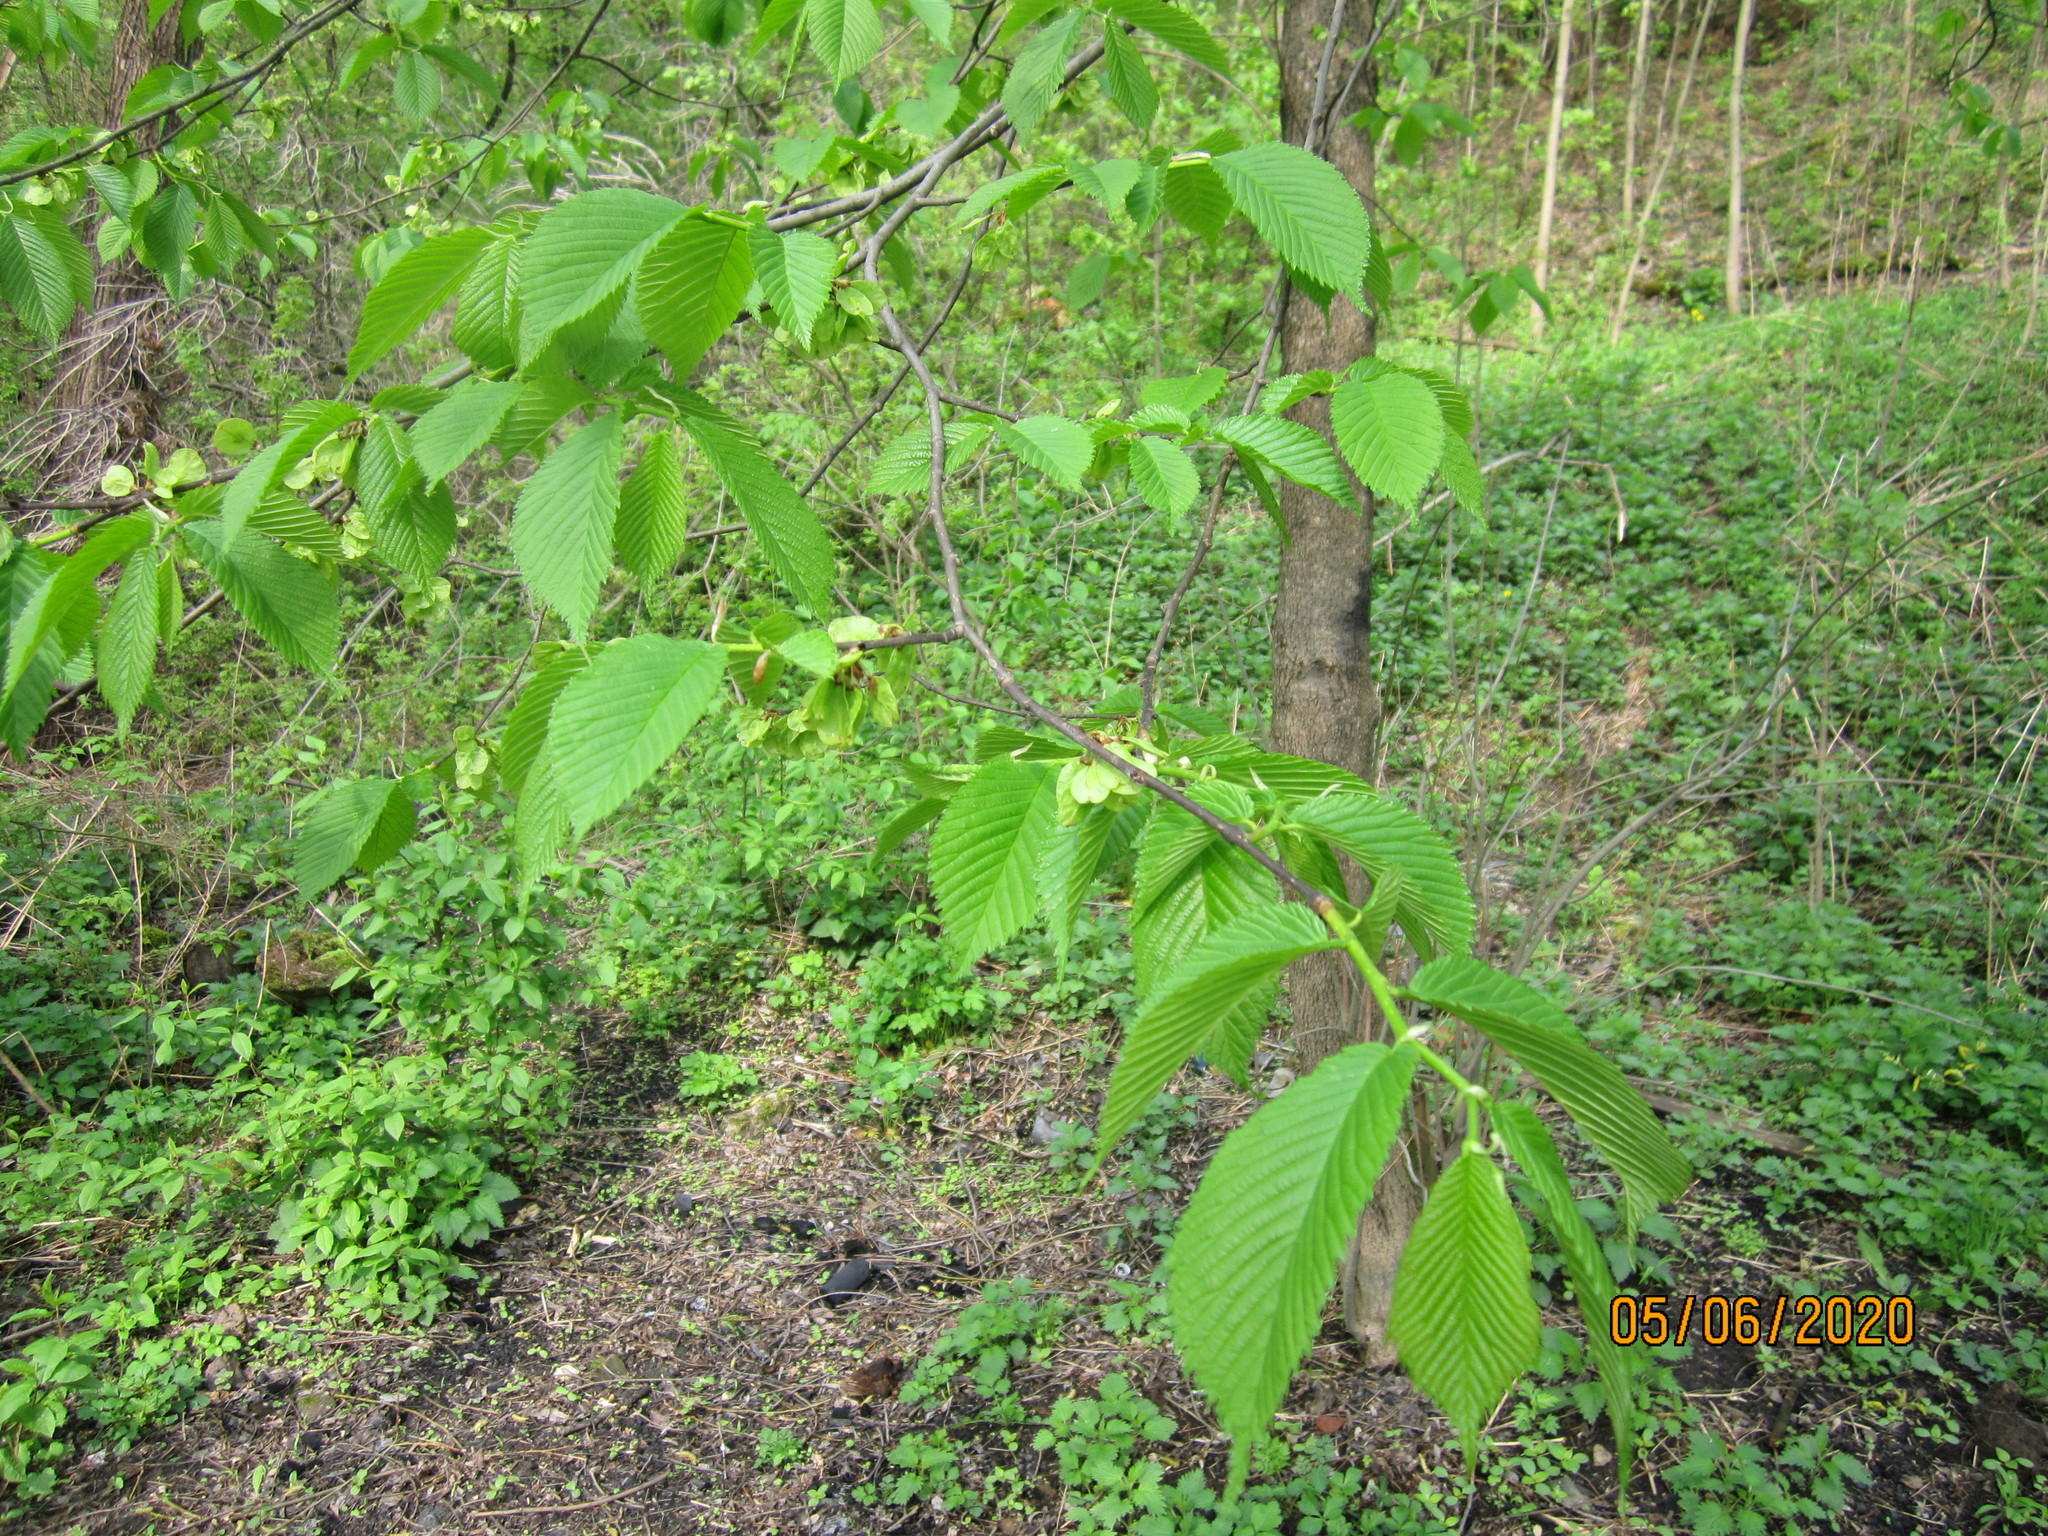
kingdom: Plantae
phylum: Tracheophyta
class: Magnoliopsida
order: Rosales
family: Ulmaceae
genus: Ulmus
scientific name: Ulmus glabra
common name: Wych elm
